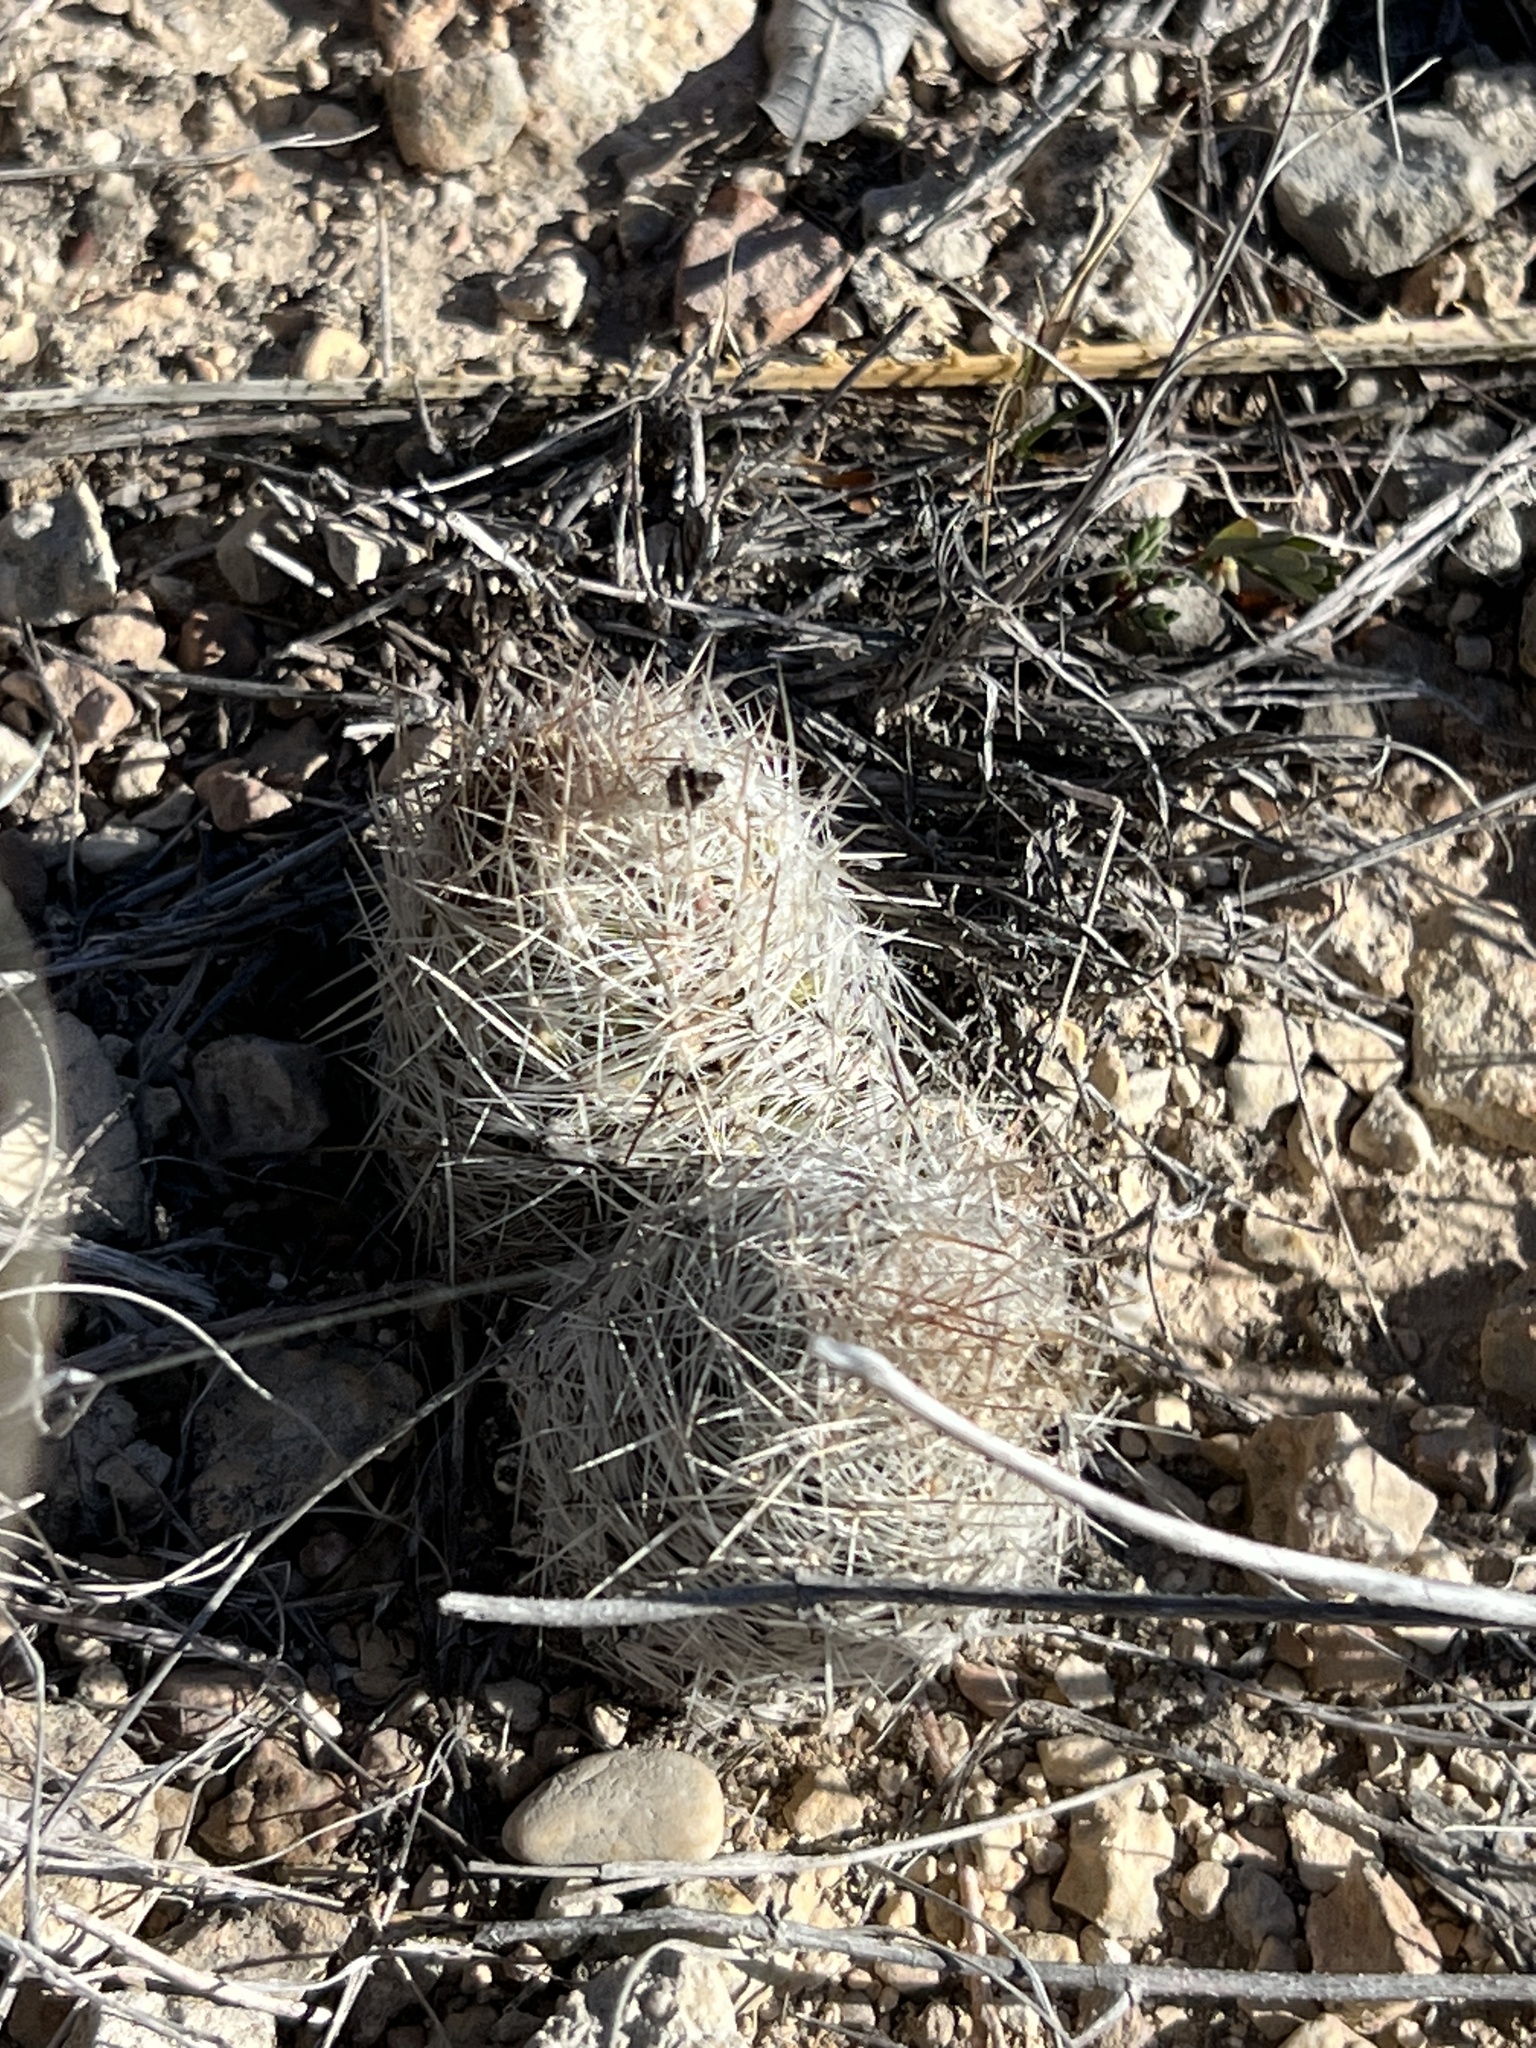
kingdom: Plantae
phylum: Tracheophyta
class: Magnoliopsida
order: Caryophyllales
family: Cactaceae
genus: Pelecyphora
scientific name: Pelecyphora tuberculosa
